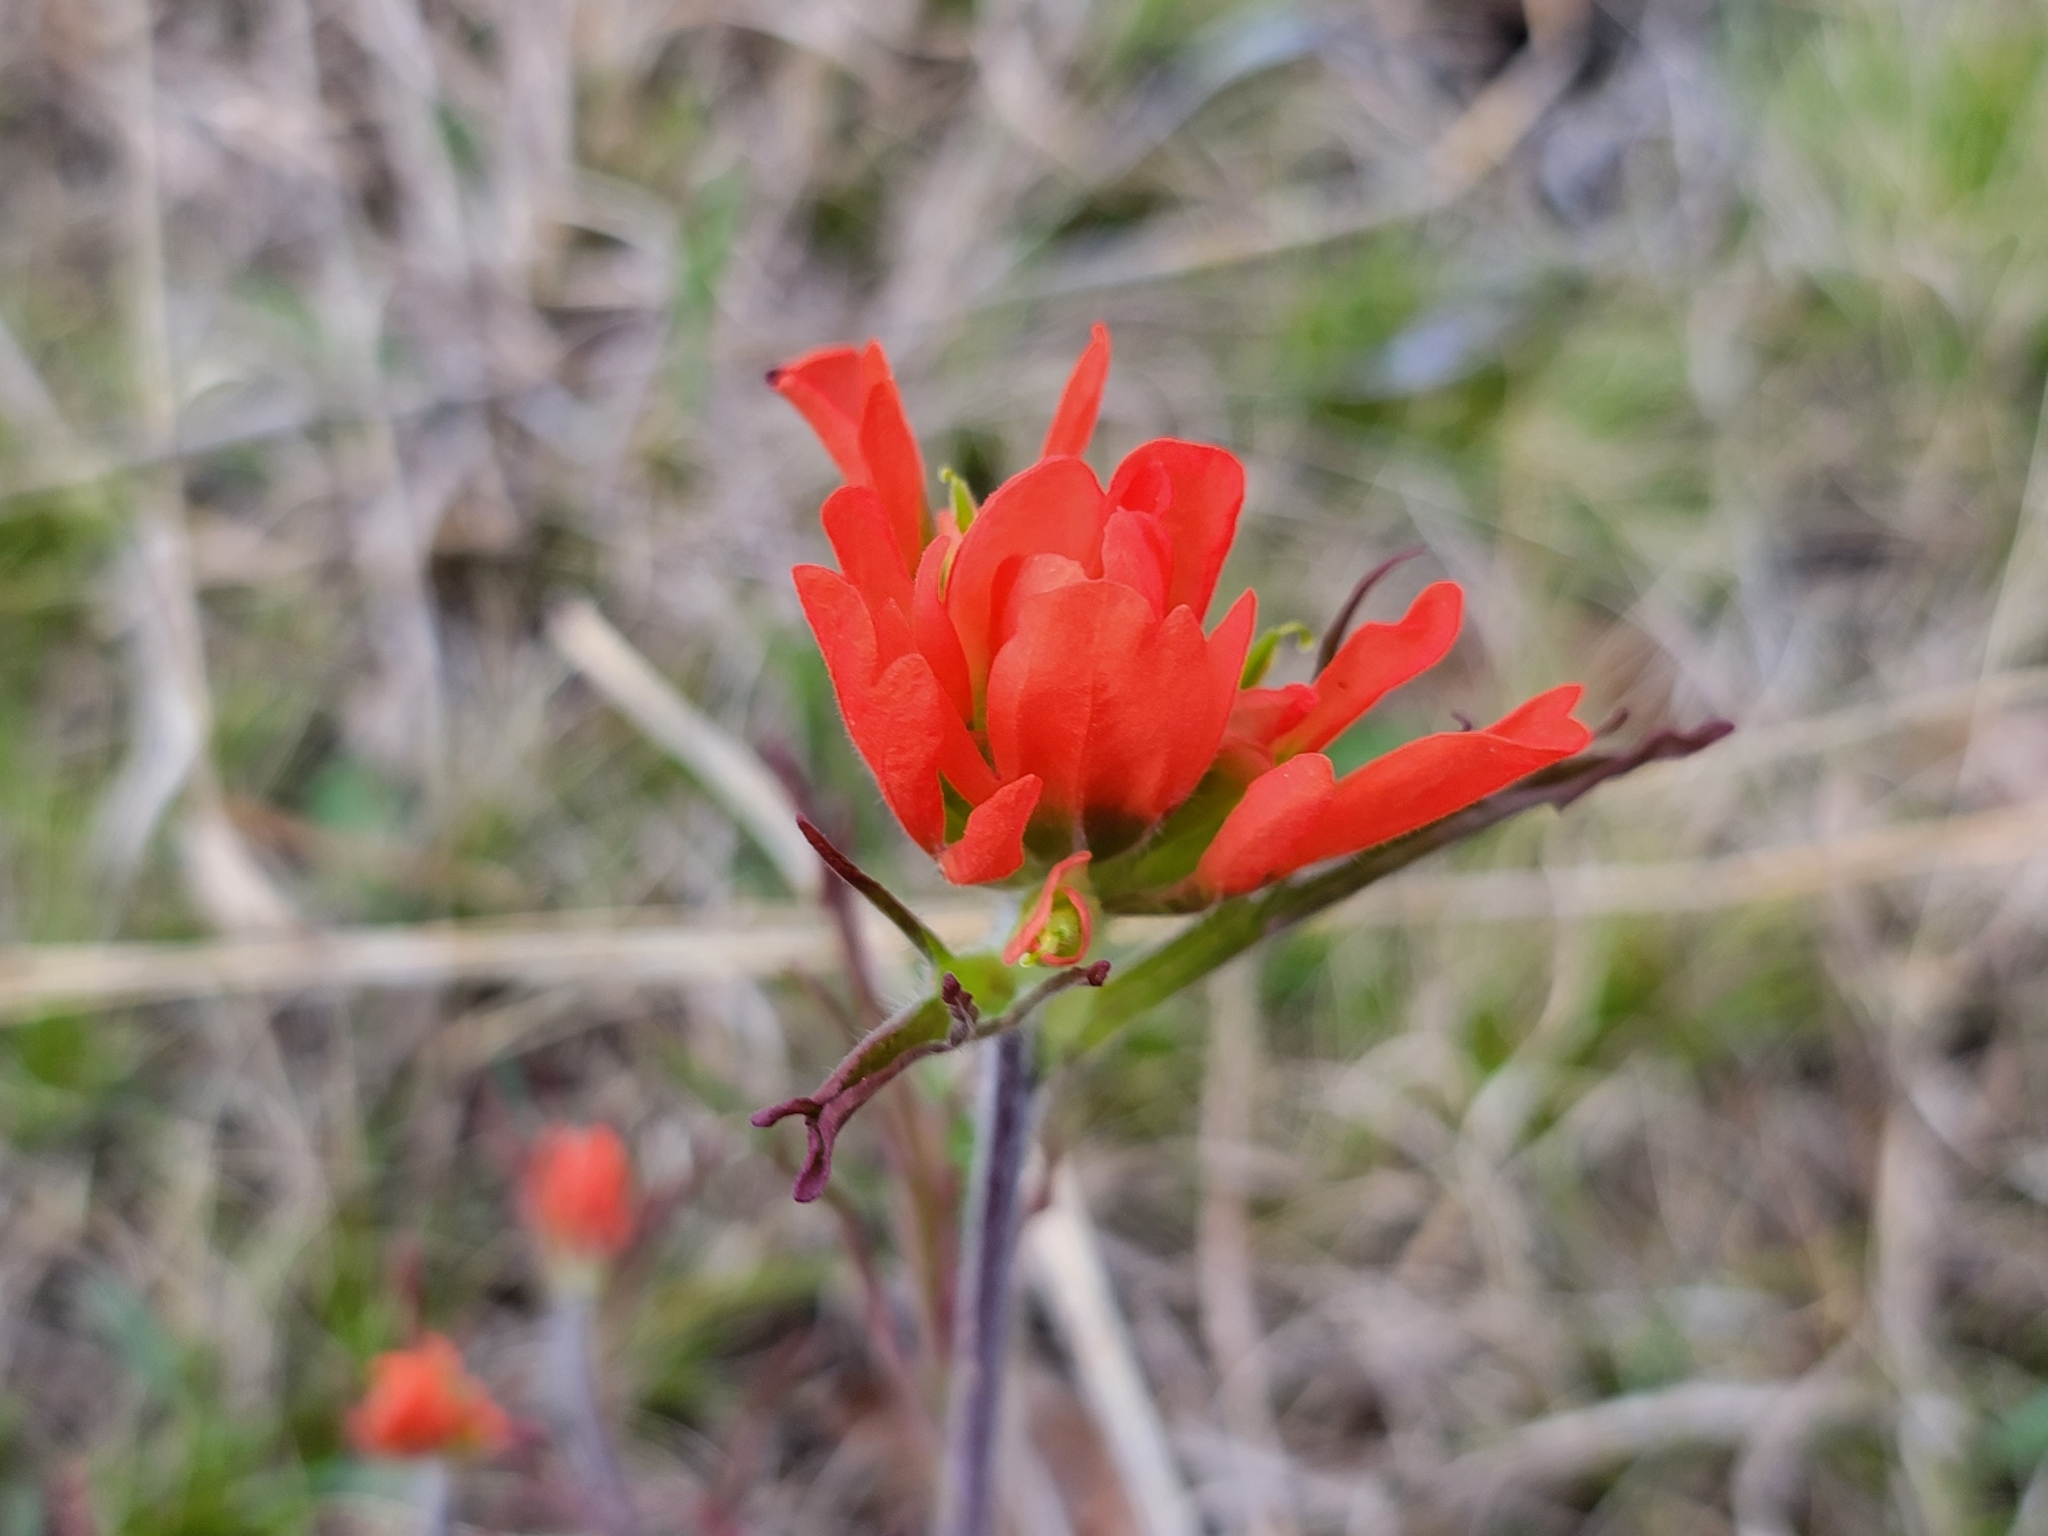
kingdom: Plantae
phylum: Tracheophyta
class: Magnoliopsida
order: Lamiales
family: Orobanchaceae
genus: Castilleja
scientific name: Castilleja coccinea
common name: Scarlet paintbrush
